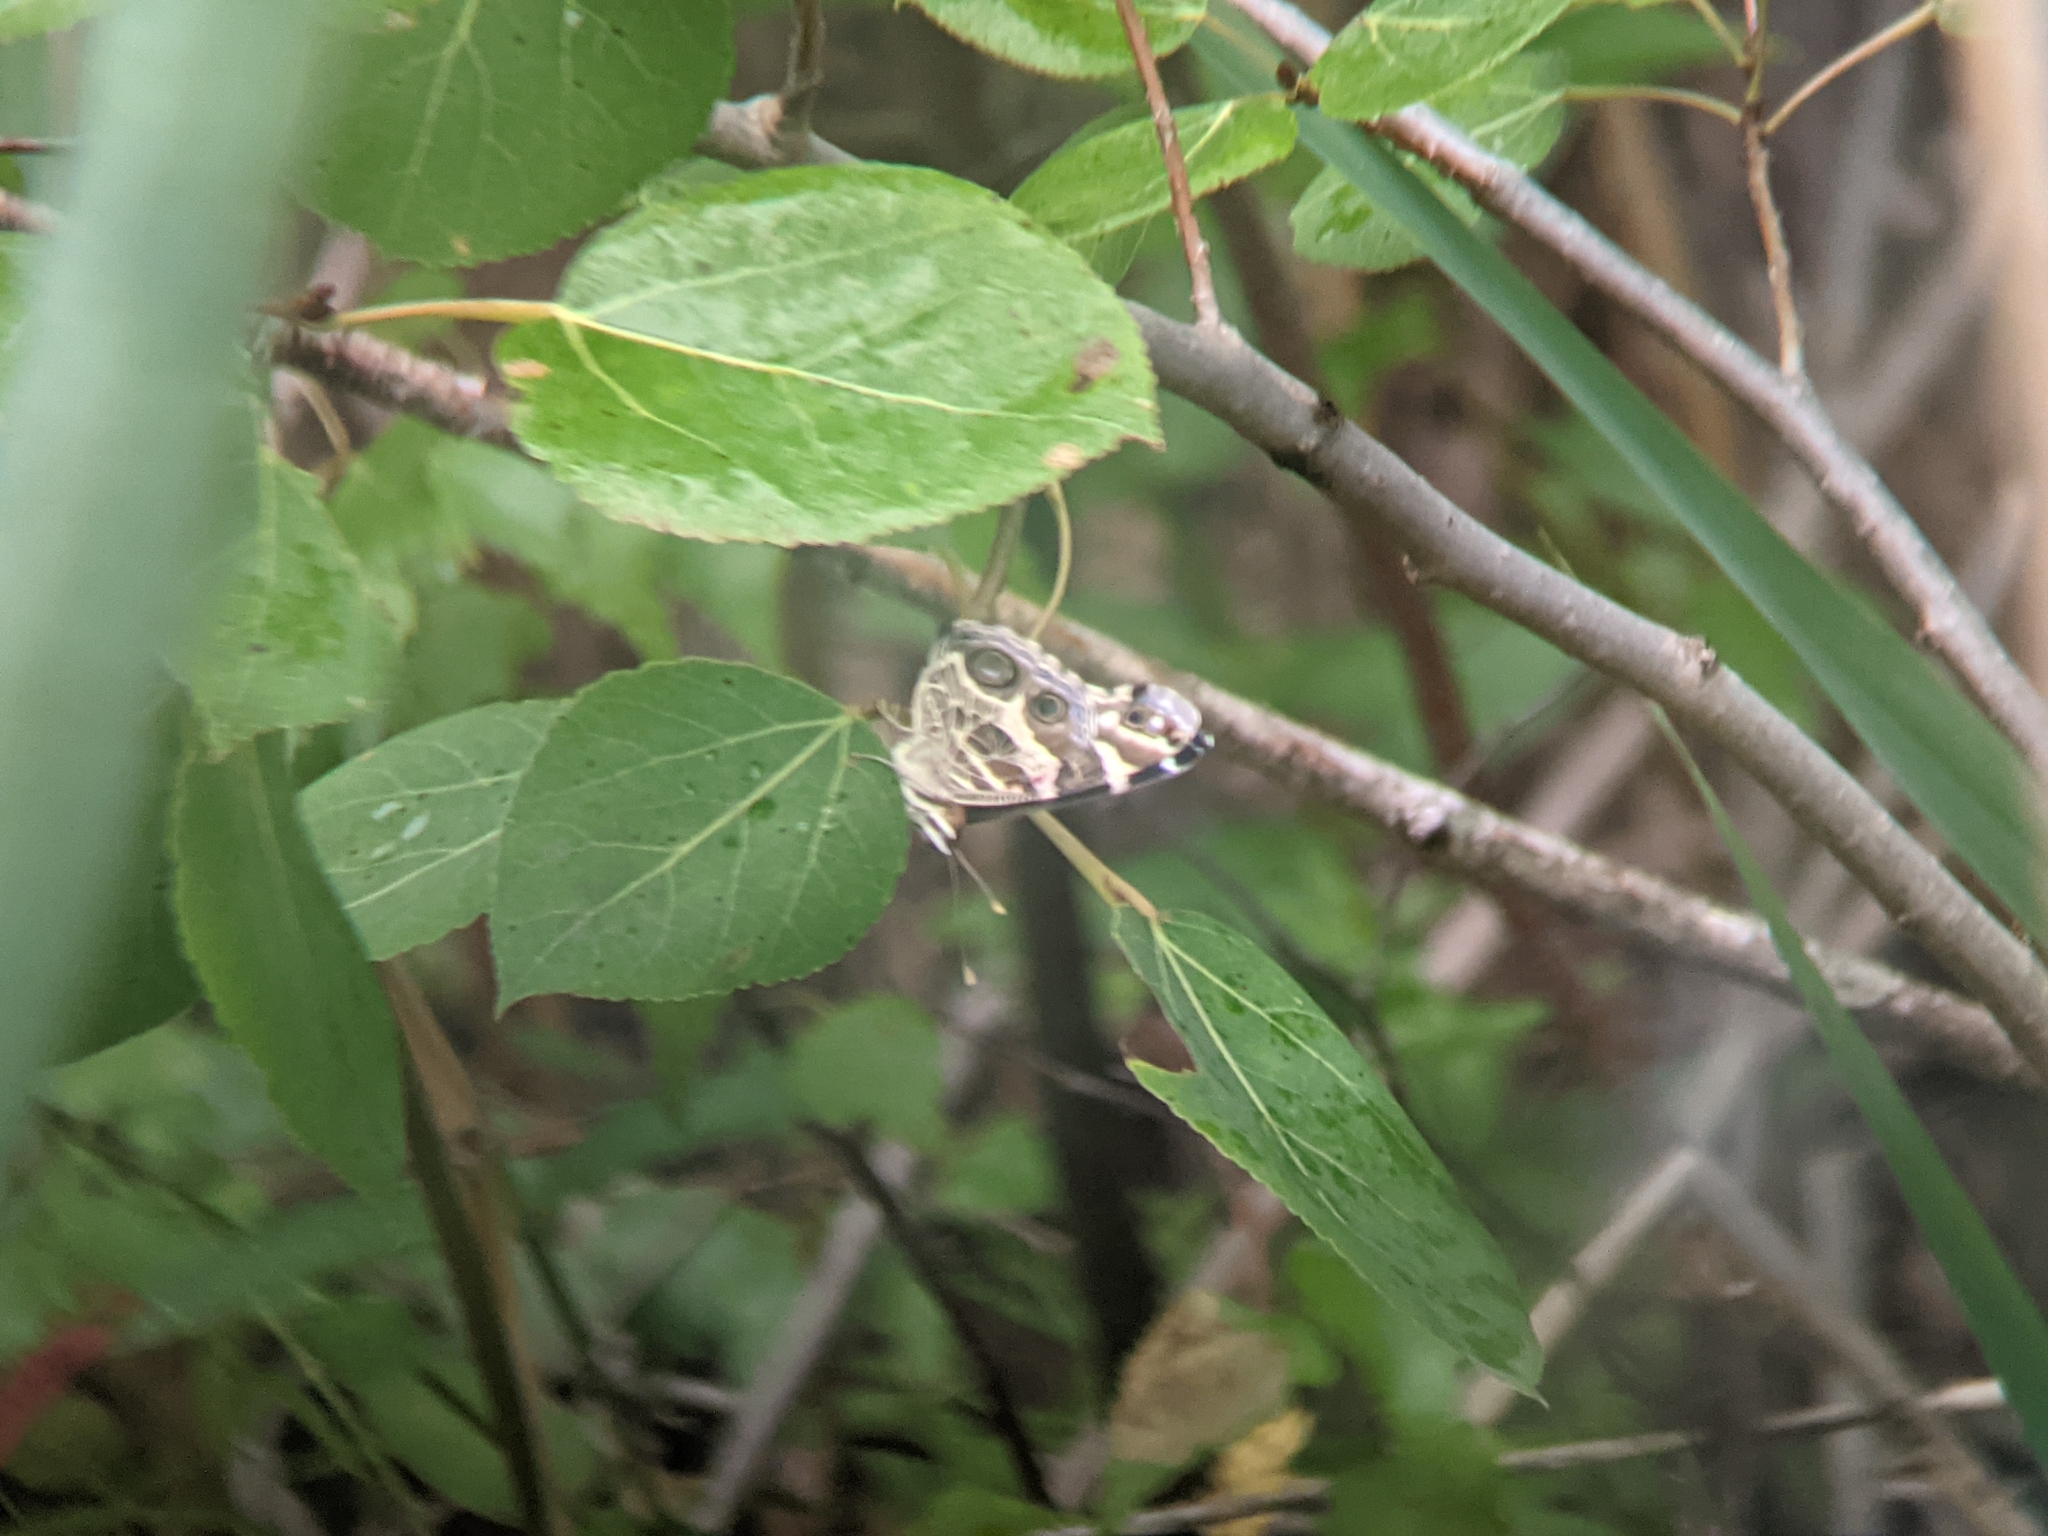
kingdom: Animalia
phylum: Arthropoda
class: Insecta
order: Lepidoptera
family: Nymphalidae
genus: Vanessa
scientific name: Vanessa virginiensis
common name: American lady
